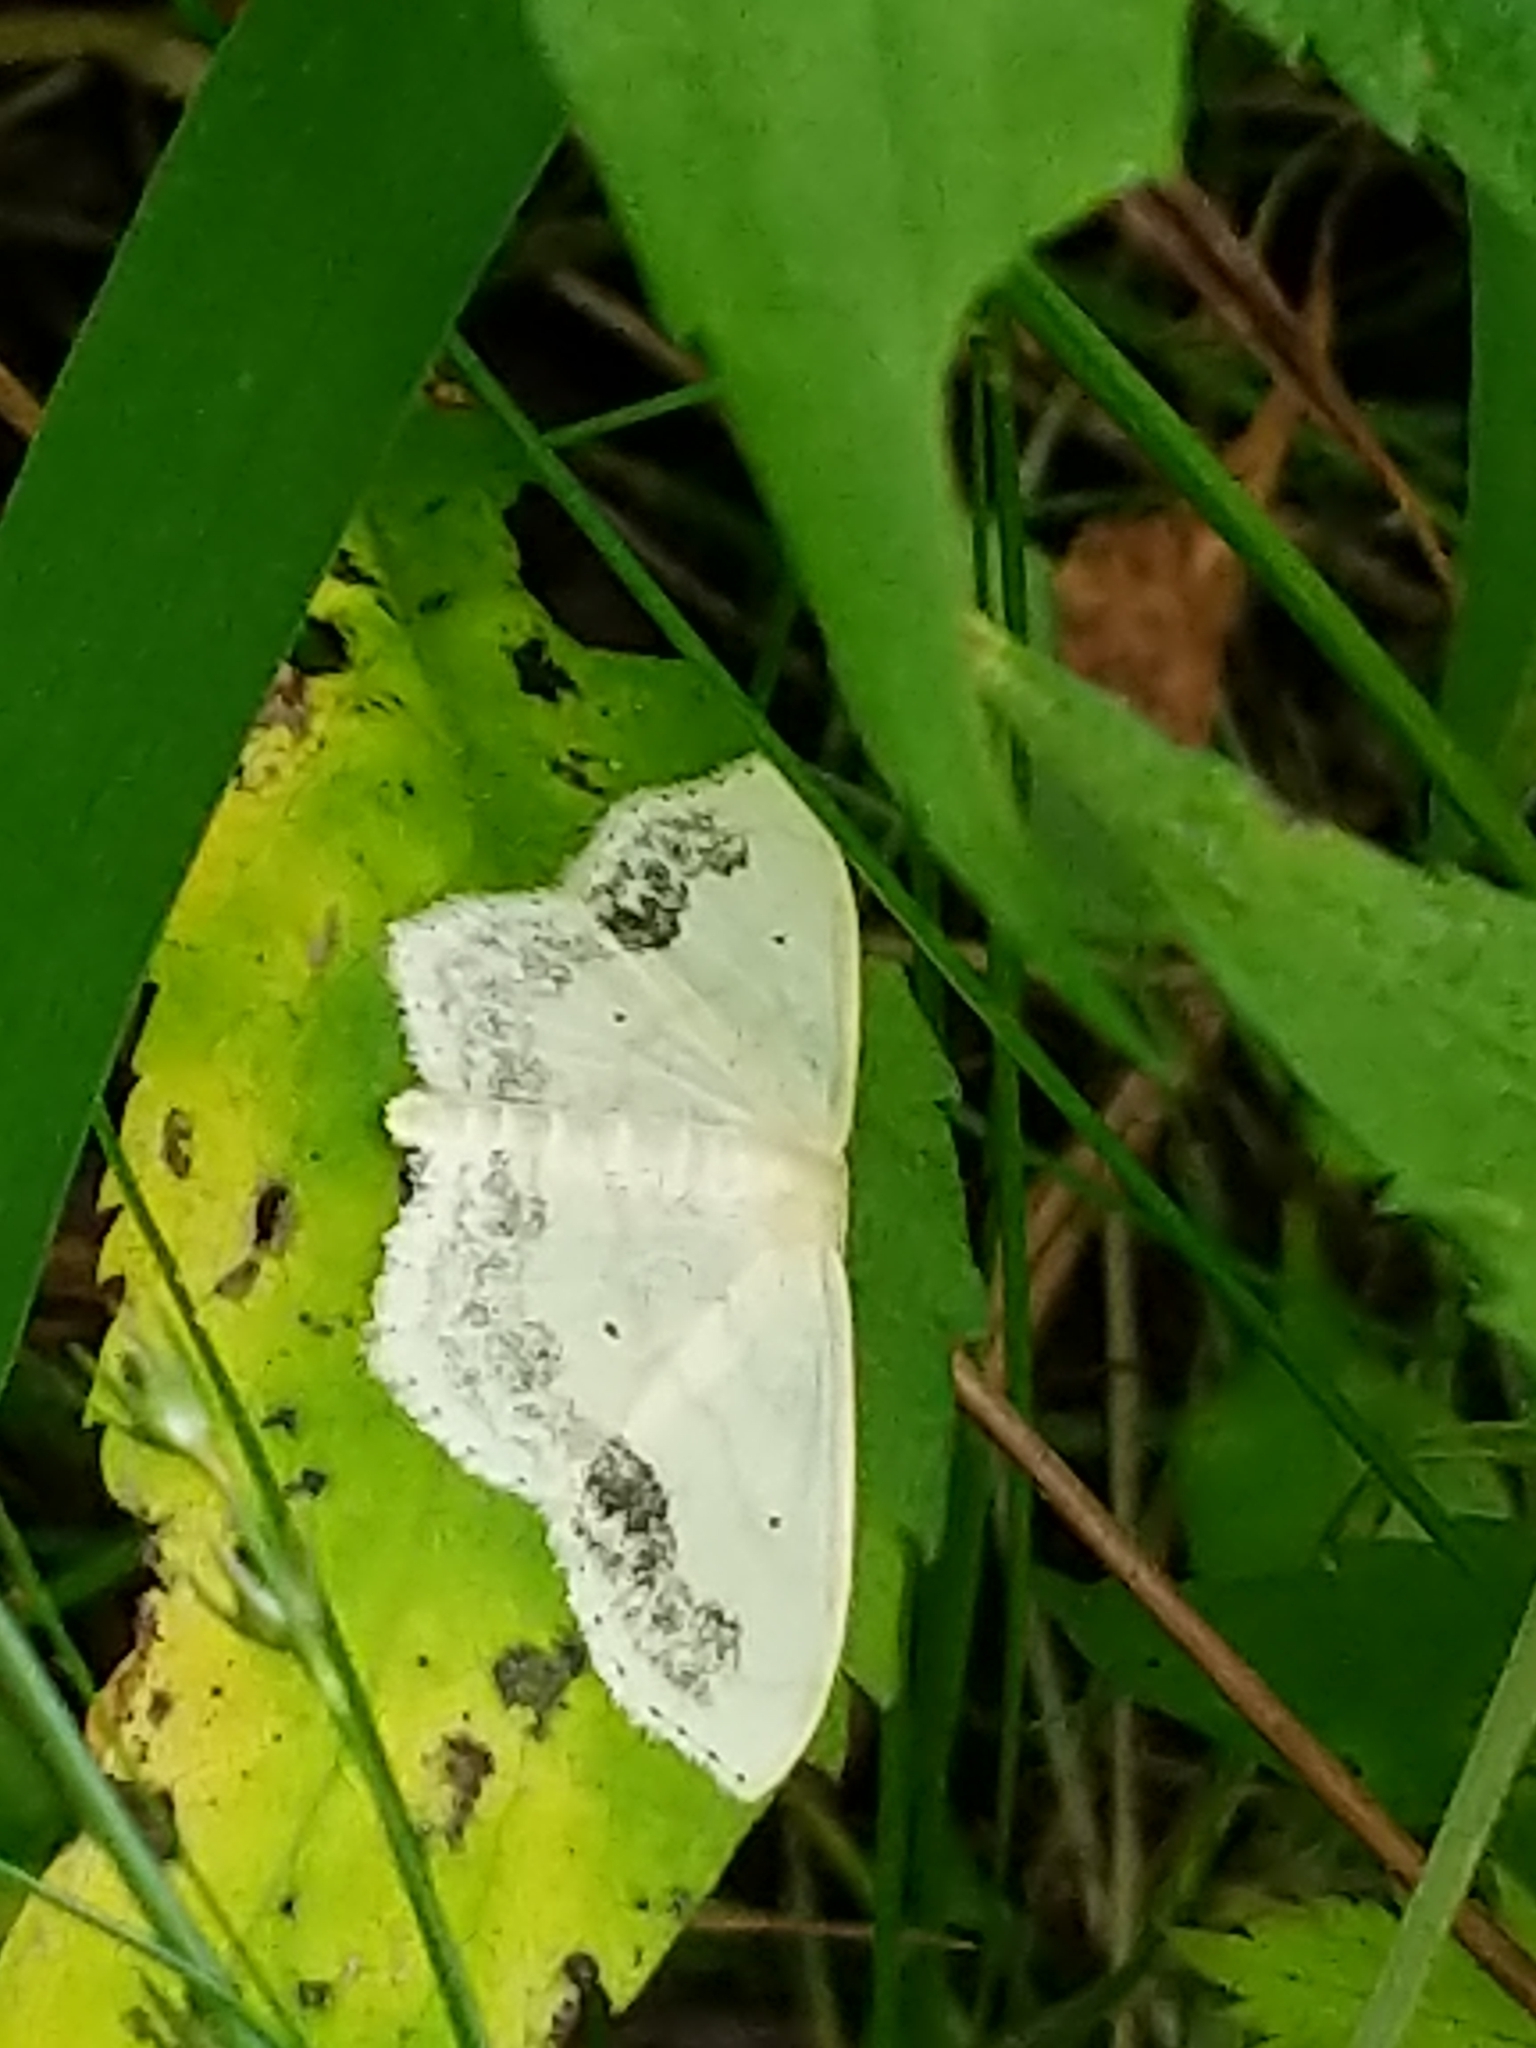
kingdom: Animalia
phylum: Arthropoda
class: Insecta
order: Lepidoptera
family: Geometridae
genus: Scopula
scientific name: Scopula limboundata
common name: Large lace border
